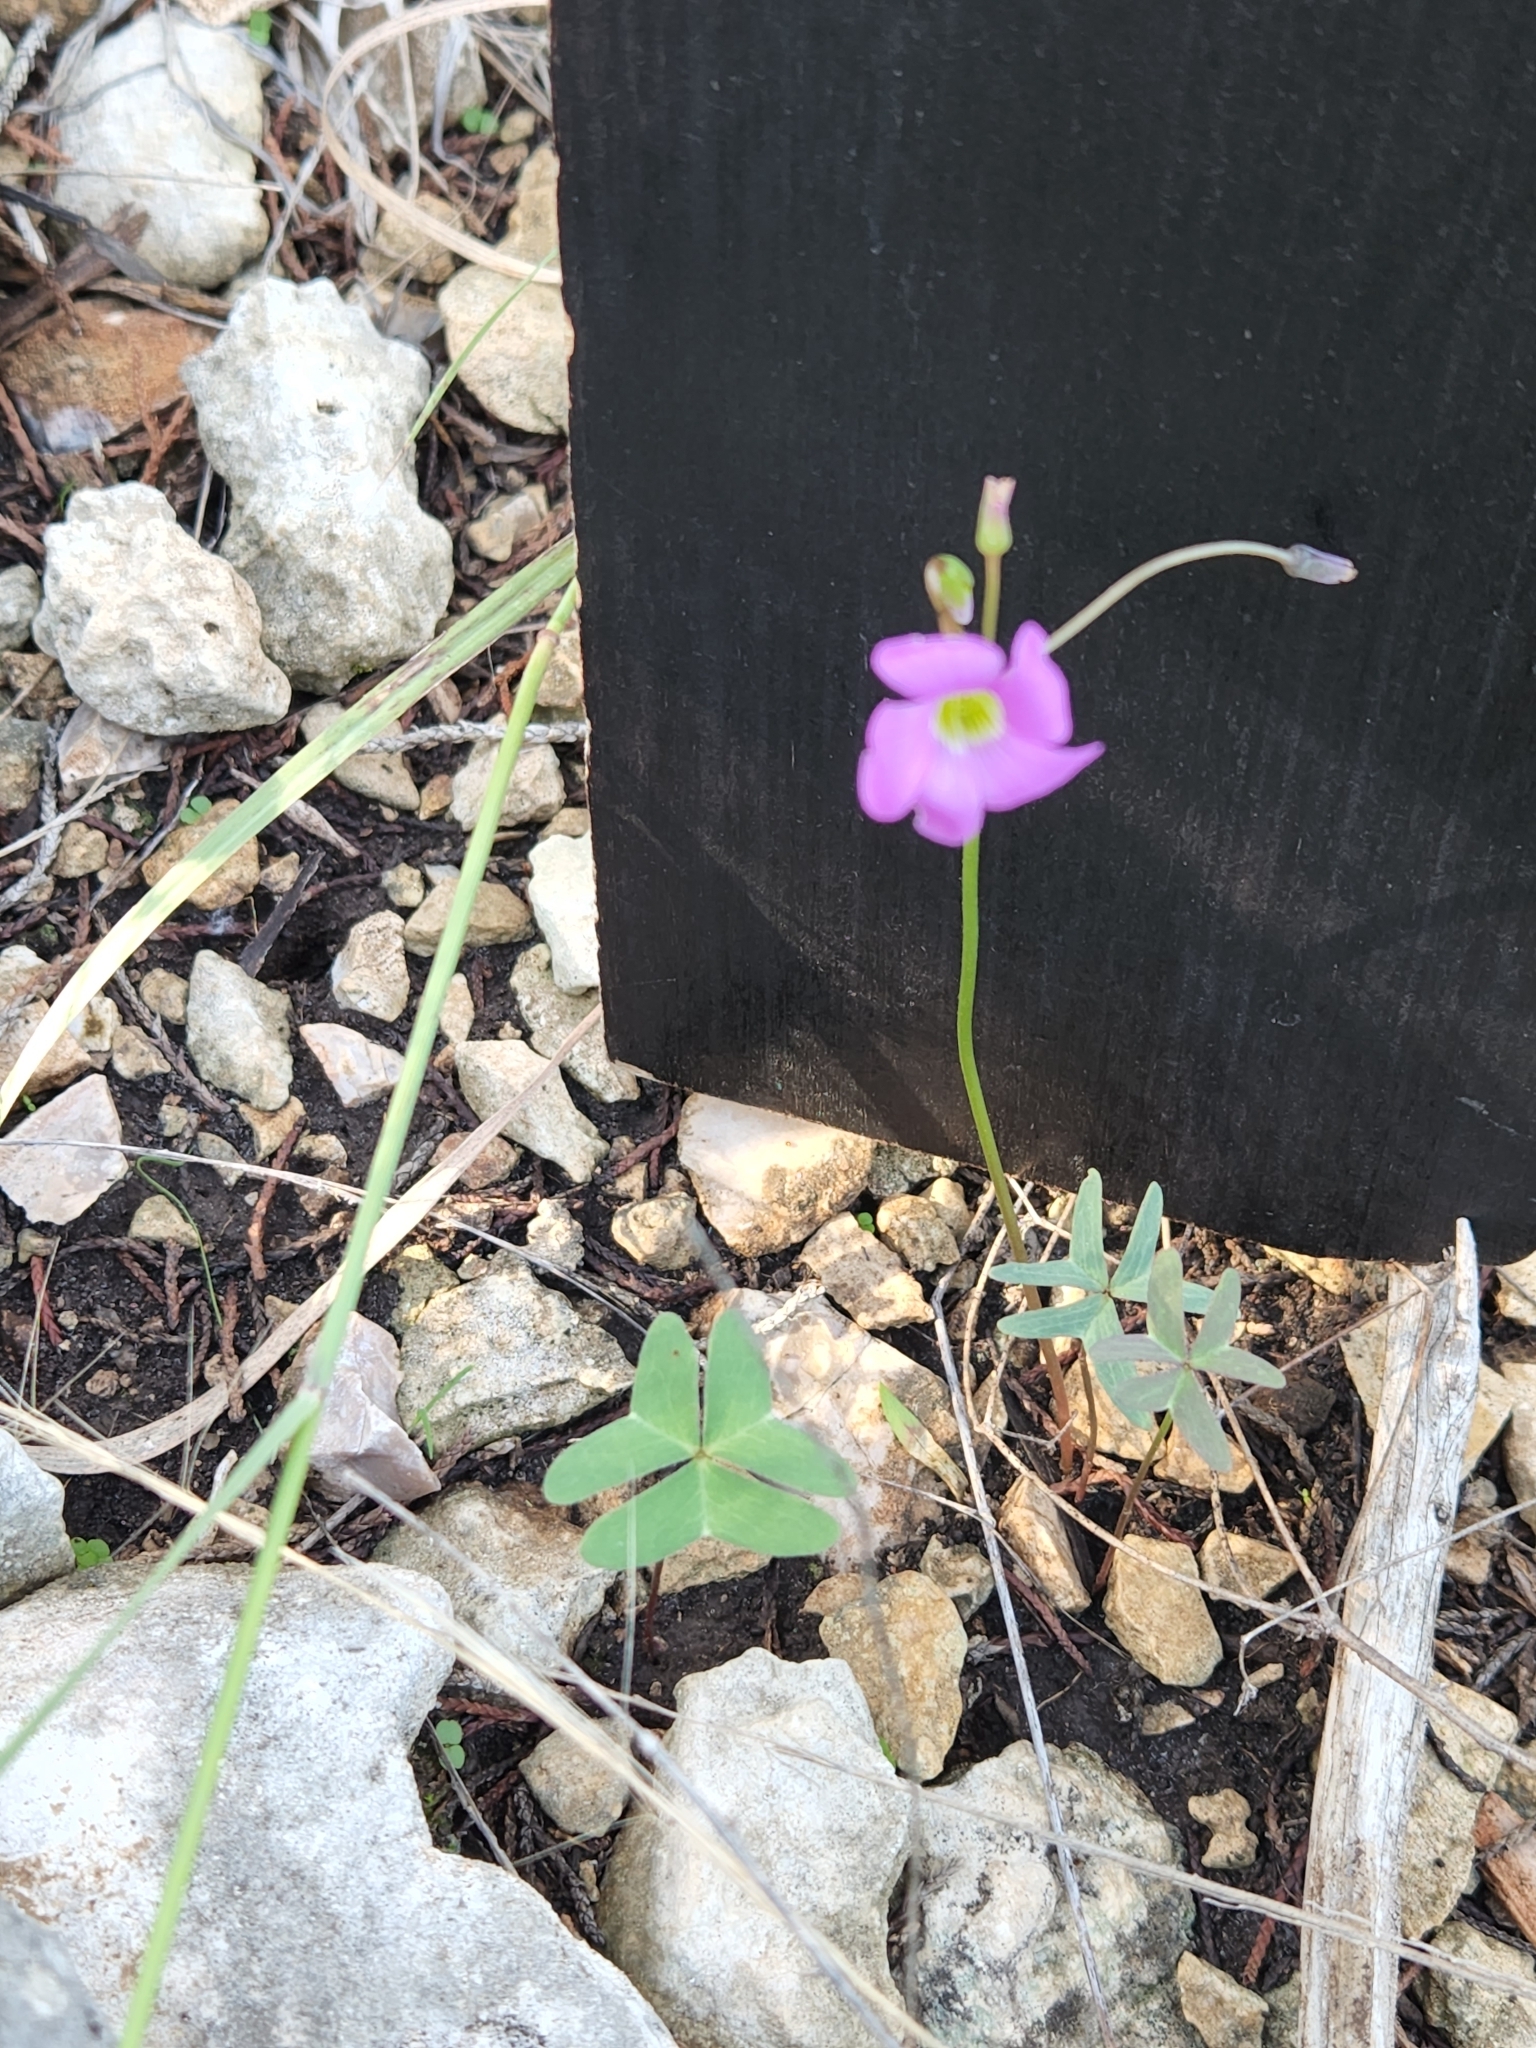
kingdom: Plantae
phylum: Tracheophyta
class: Magnoliopsida
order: Oxalidales
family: Oxalidaceae
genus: Oxalis
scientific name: Oxalis drummondii
